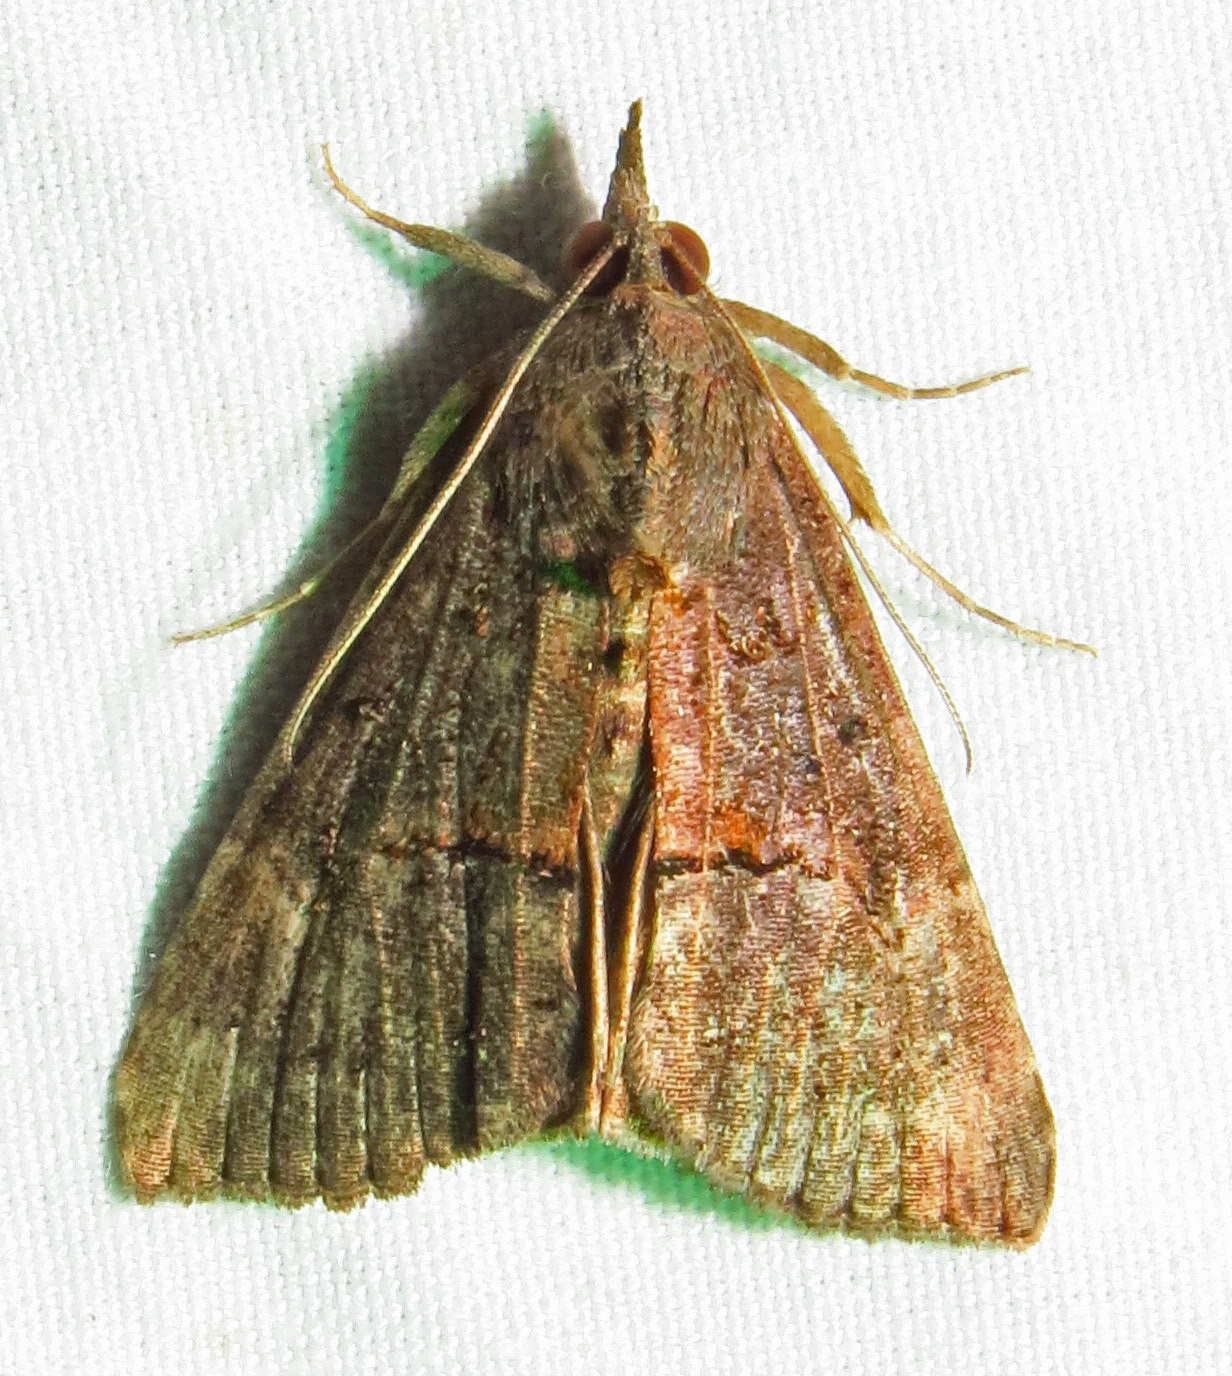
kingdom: Animalia
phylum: Arthropoda
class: Insecta
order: Lepidoptera
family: Erebidae
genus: Hypena
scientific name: Hypena scabra
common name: Green cloverworm
